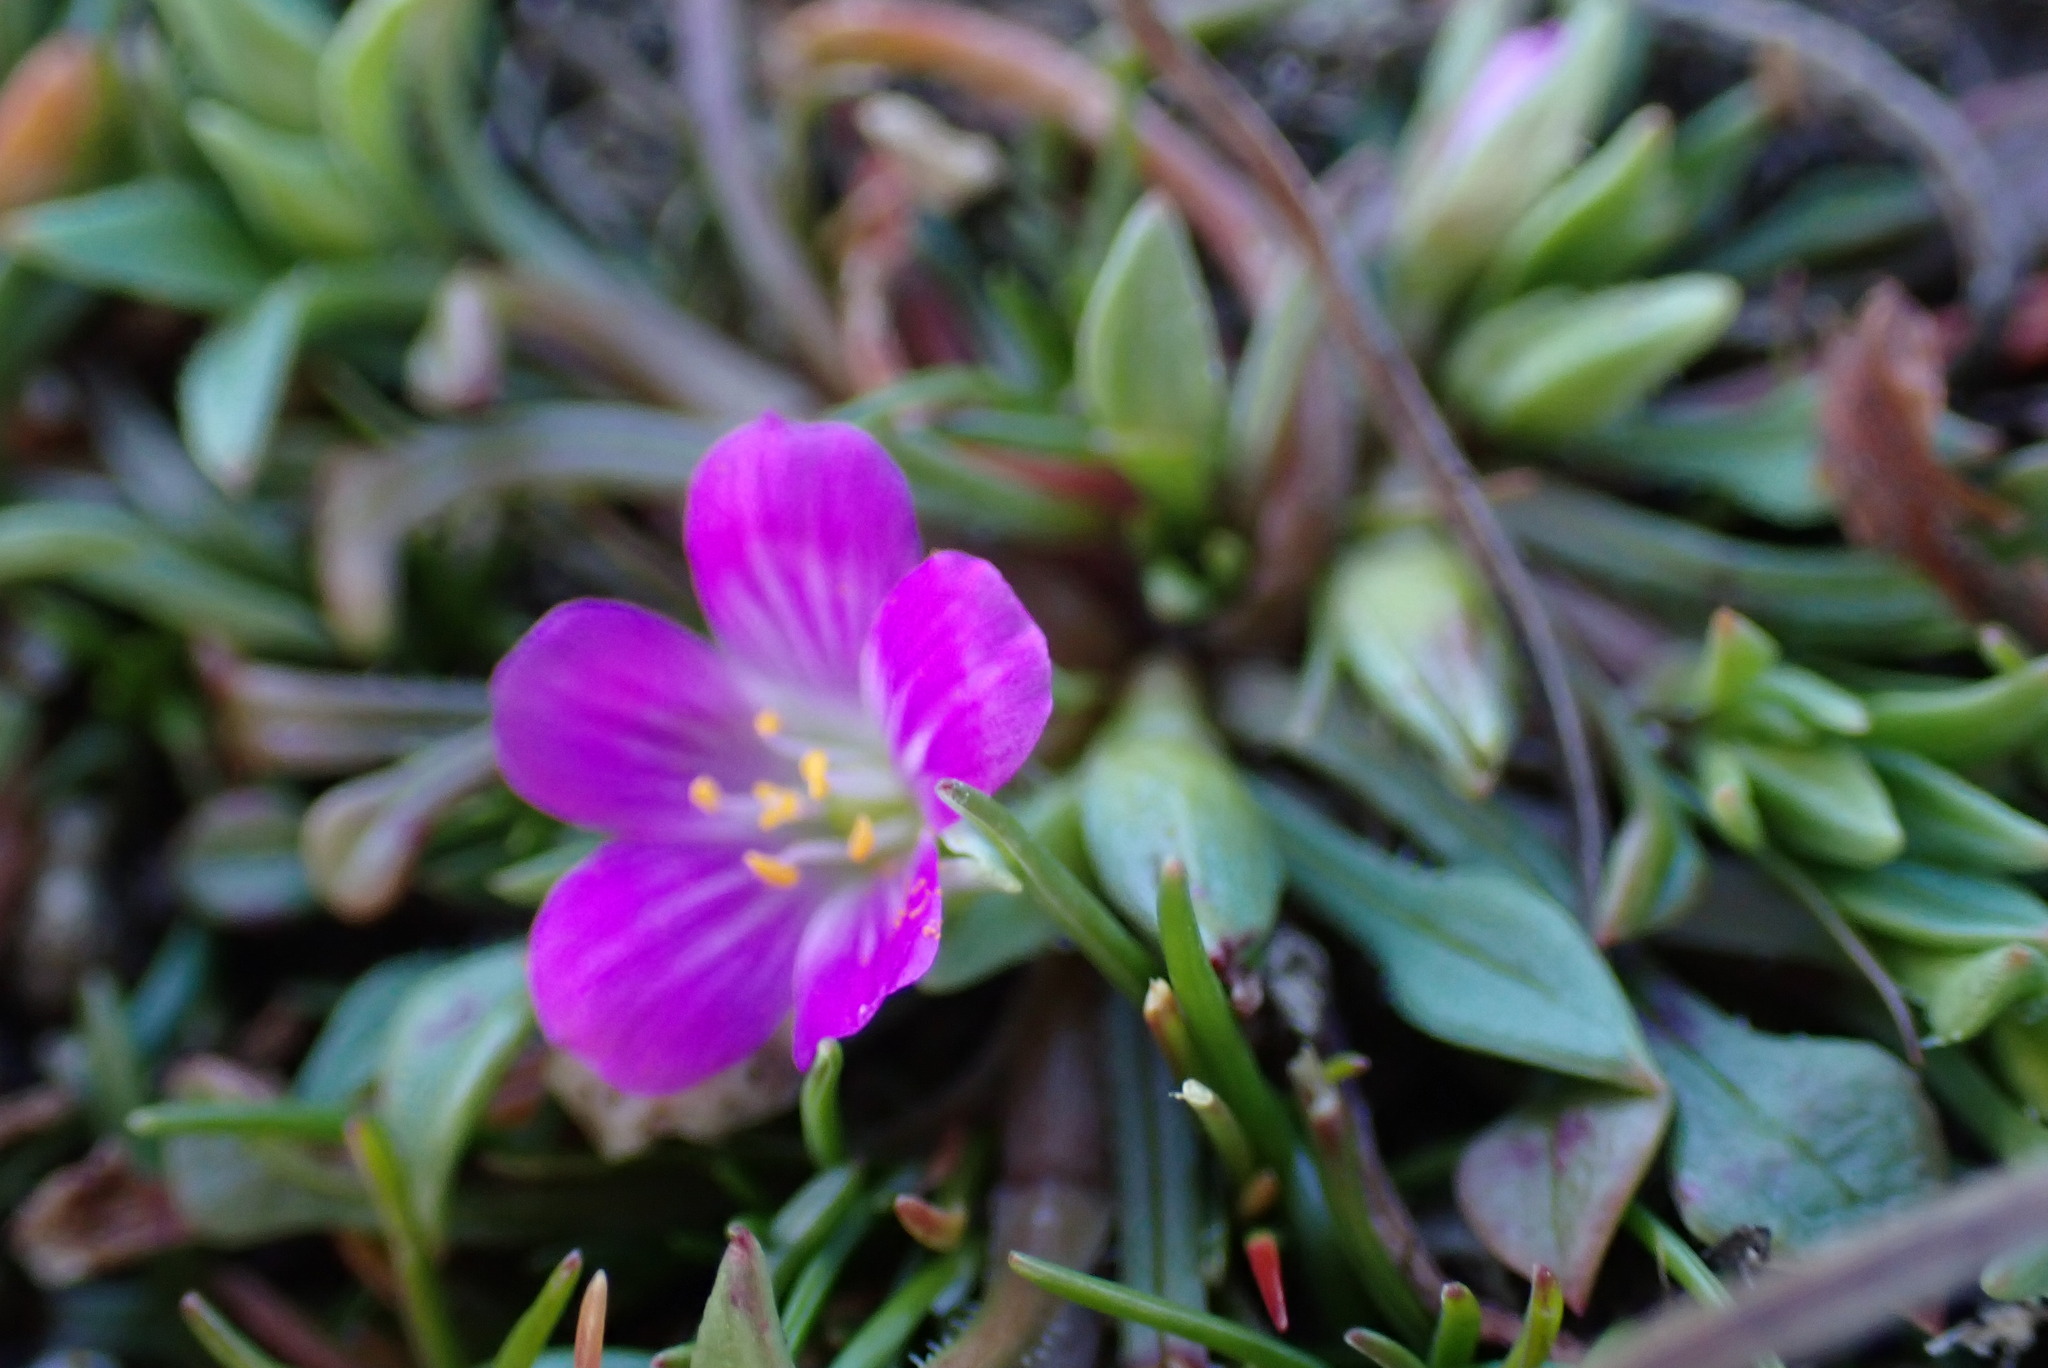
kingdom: Plantae
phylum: Tracheophyta
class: Magnoliopsida
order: Caryophyllales
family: Montiaceae
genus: Calandrinia
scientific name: Calandrinia menziesii
